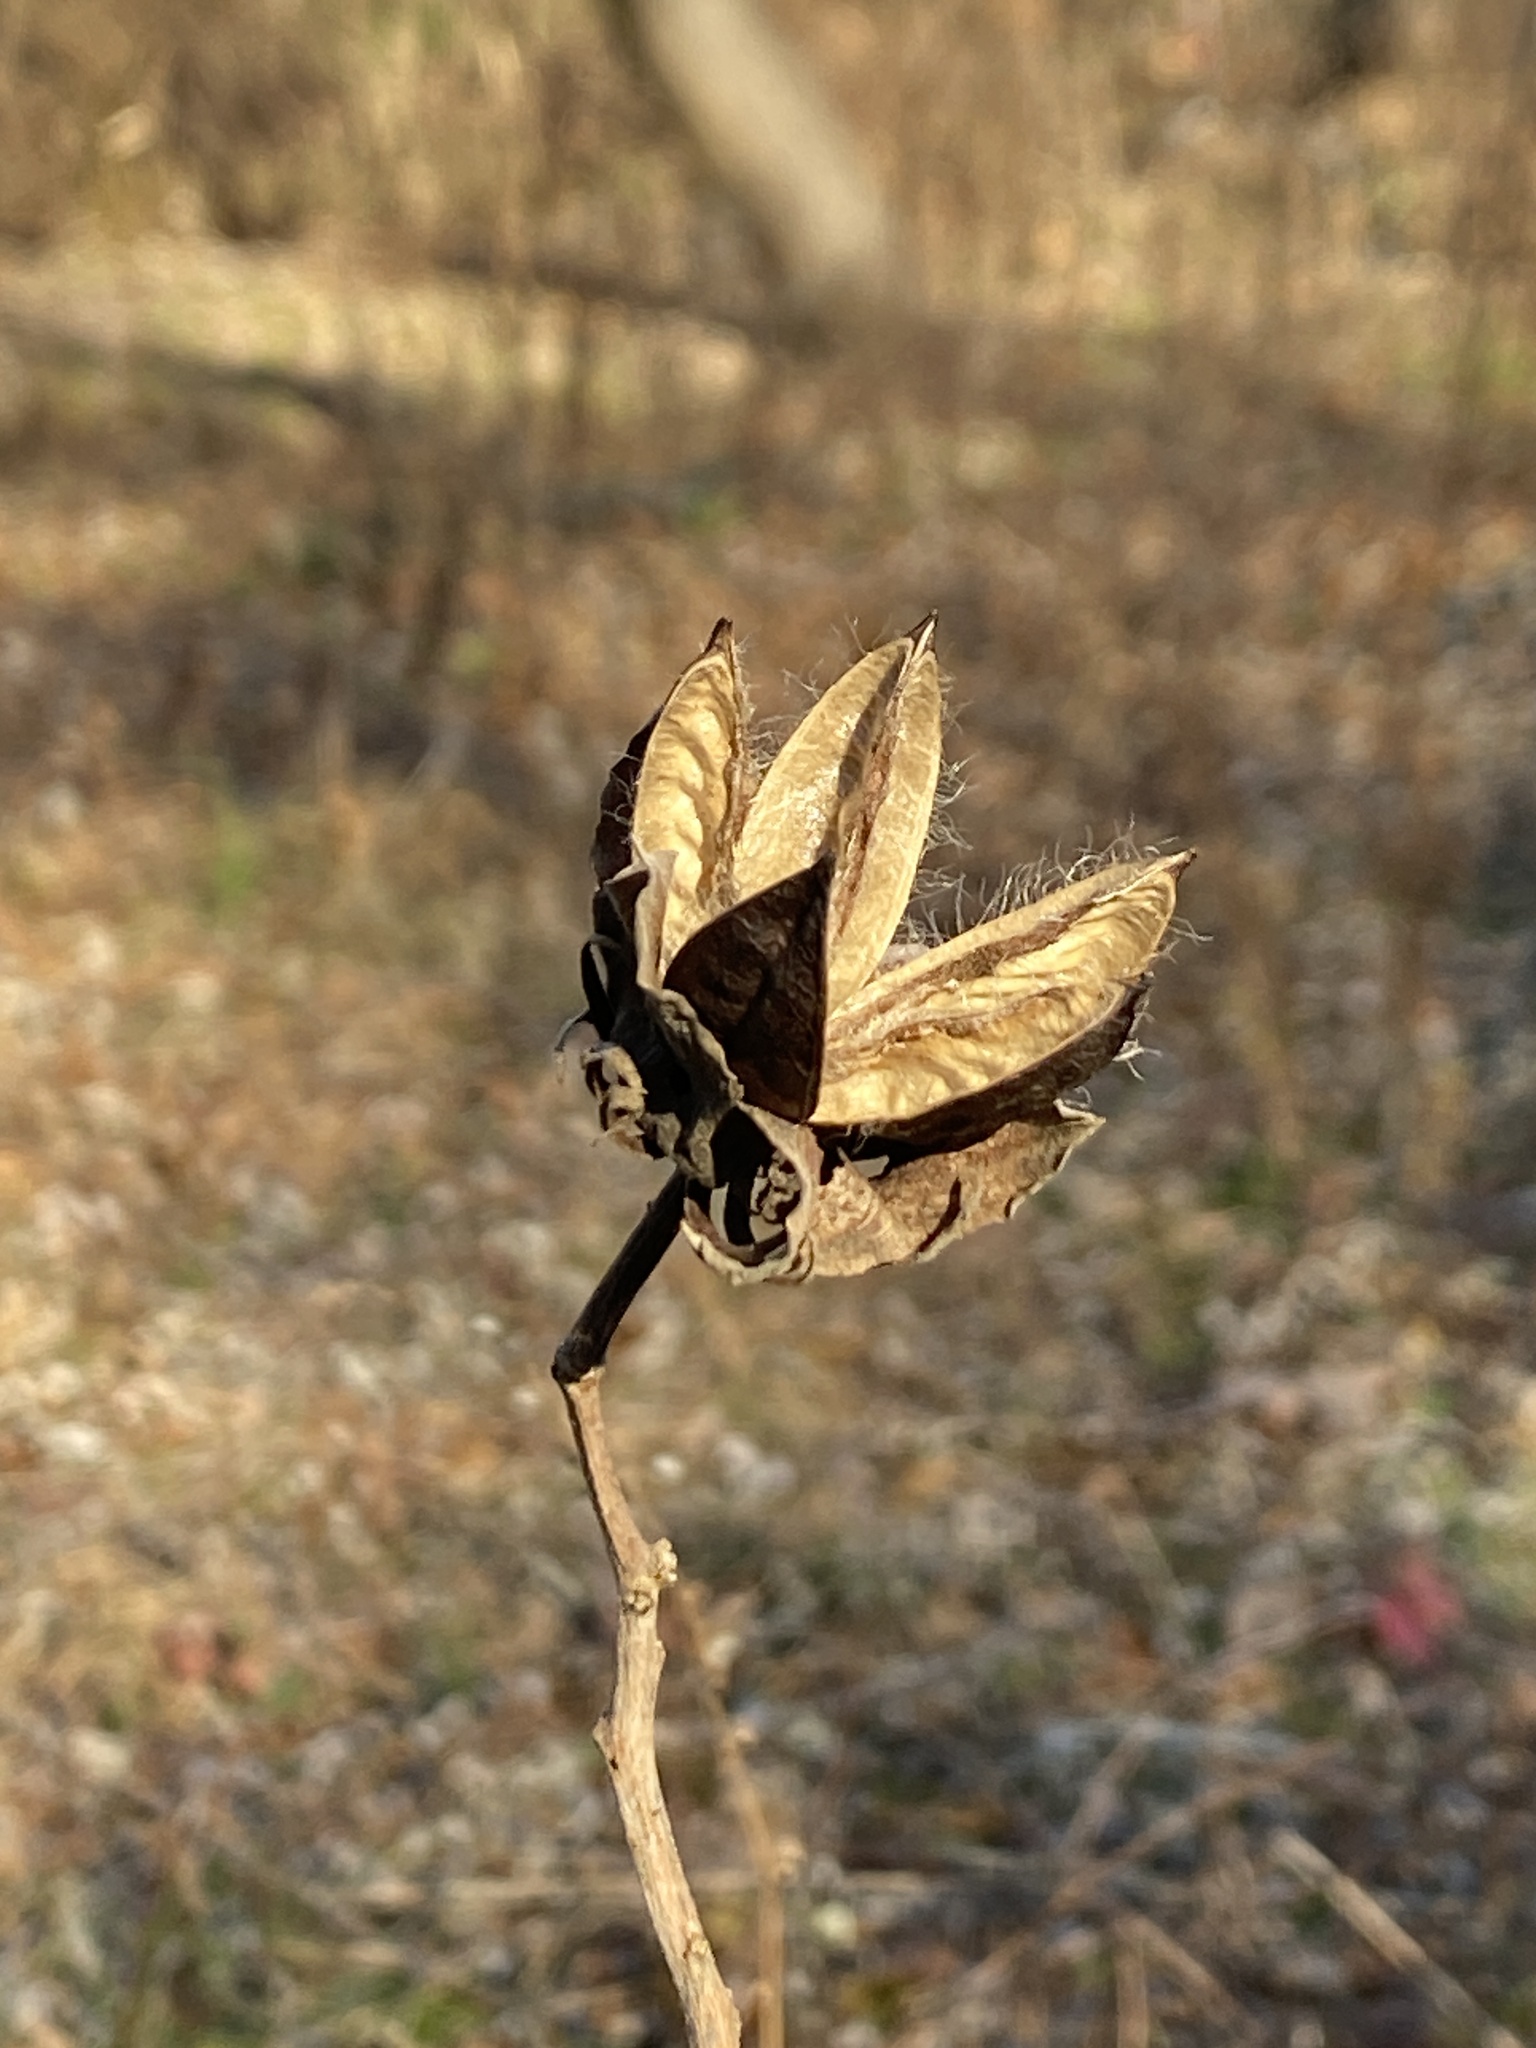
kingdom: Plantae
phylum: Tracheophyta
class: Magnoliopsida
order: Malvales
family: Malvaceae
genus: Hibiscus
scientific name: Hibiscus moscheutos
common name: Common rose-mallow
